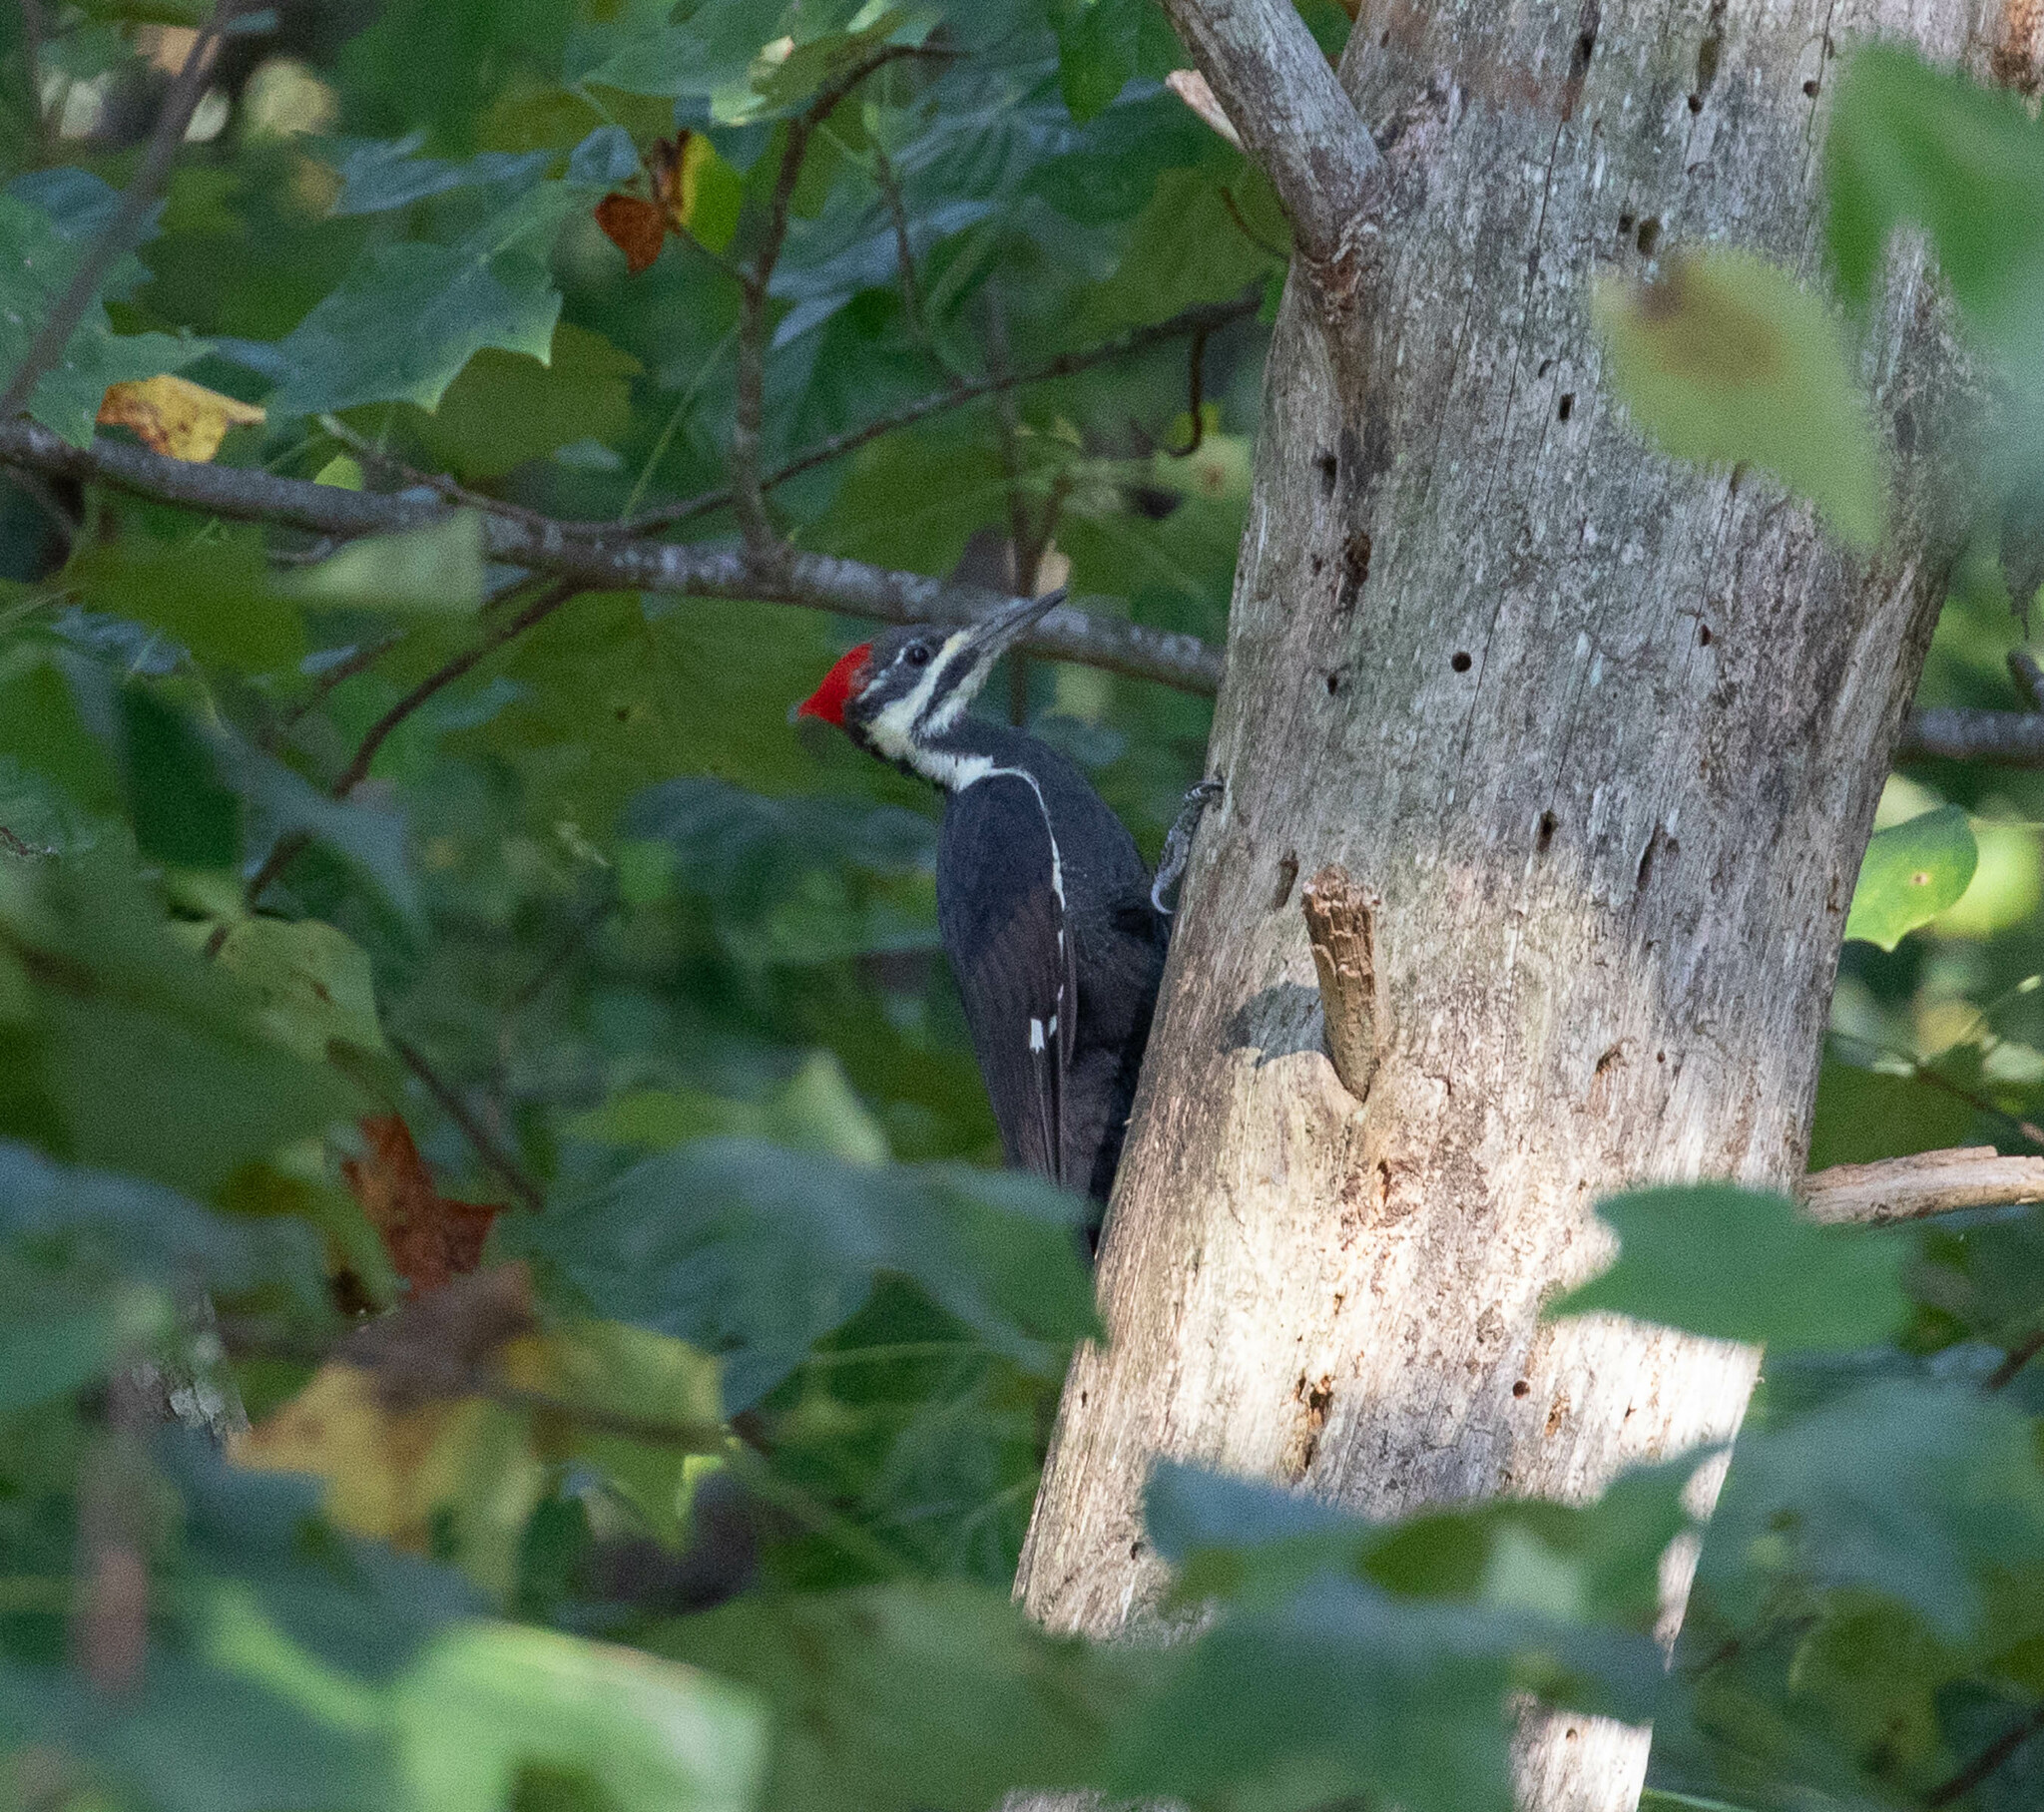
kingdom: Animalia
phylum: Chordata
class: Aves
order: Piciformes
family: Picidae
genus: Dryocopus
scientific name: Dryocopus pileatus
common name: Pileated woodpecker
